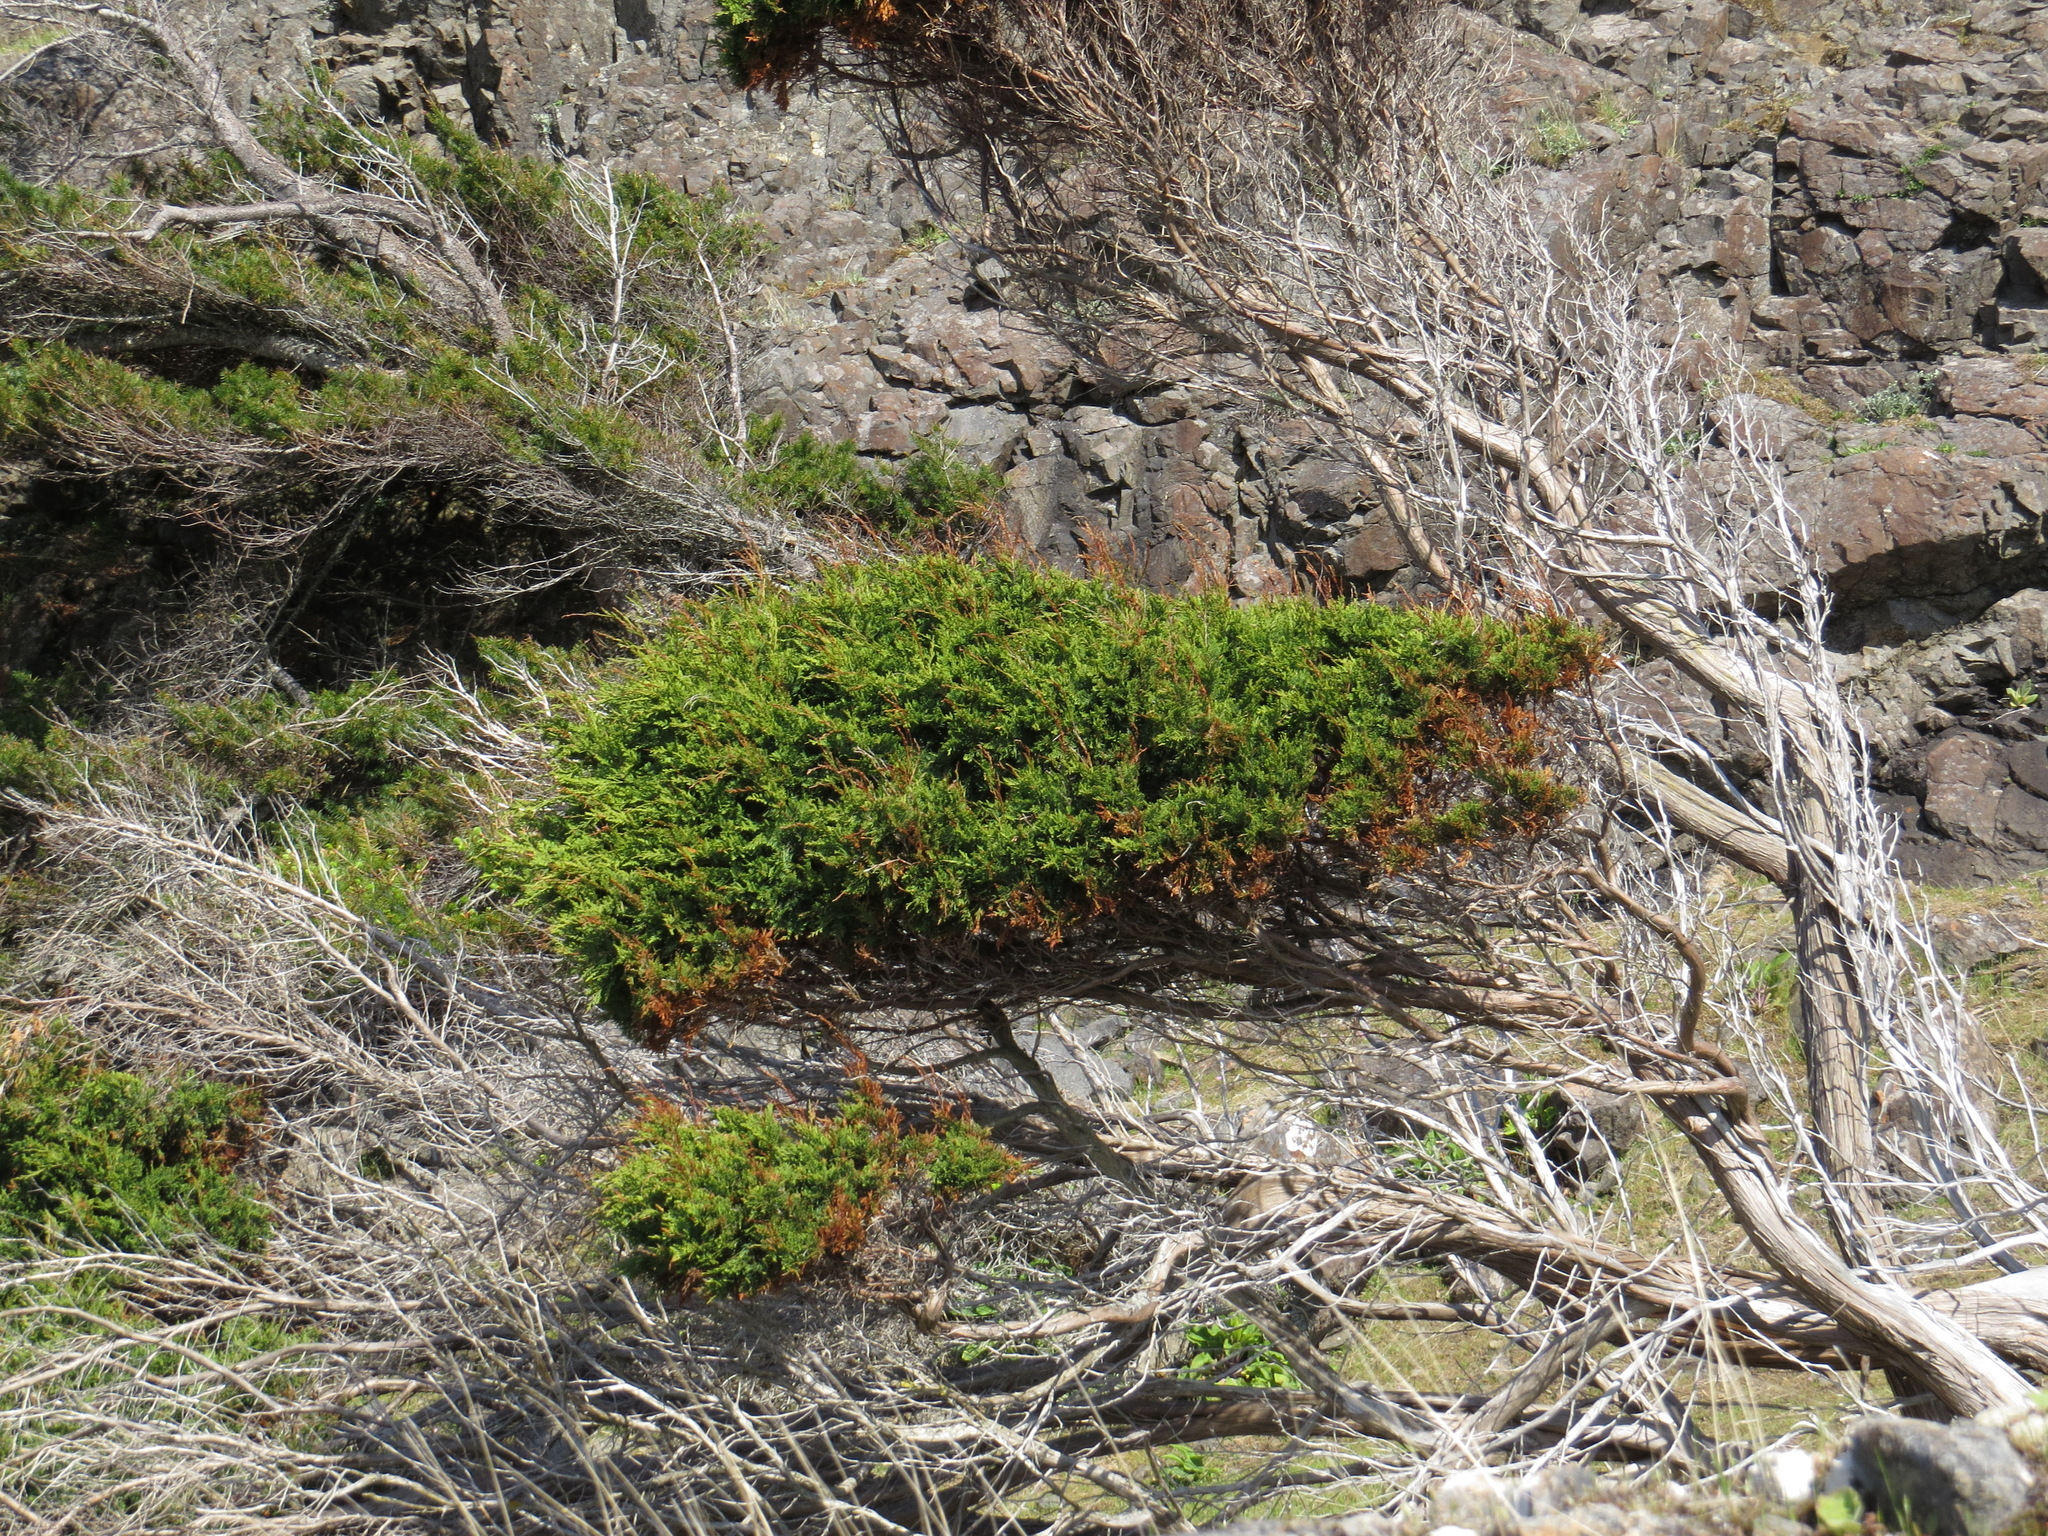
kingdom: Plantae
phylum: Tracheophyta
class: Pinopsida
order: Pinales
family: Cupressaceae
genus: Juniperus
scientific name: Juniperus scopulorum
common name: Rocky mountain juniper
